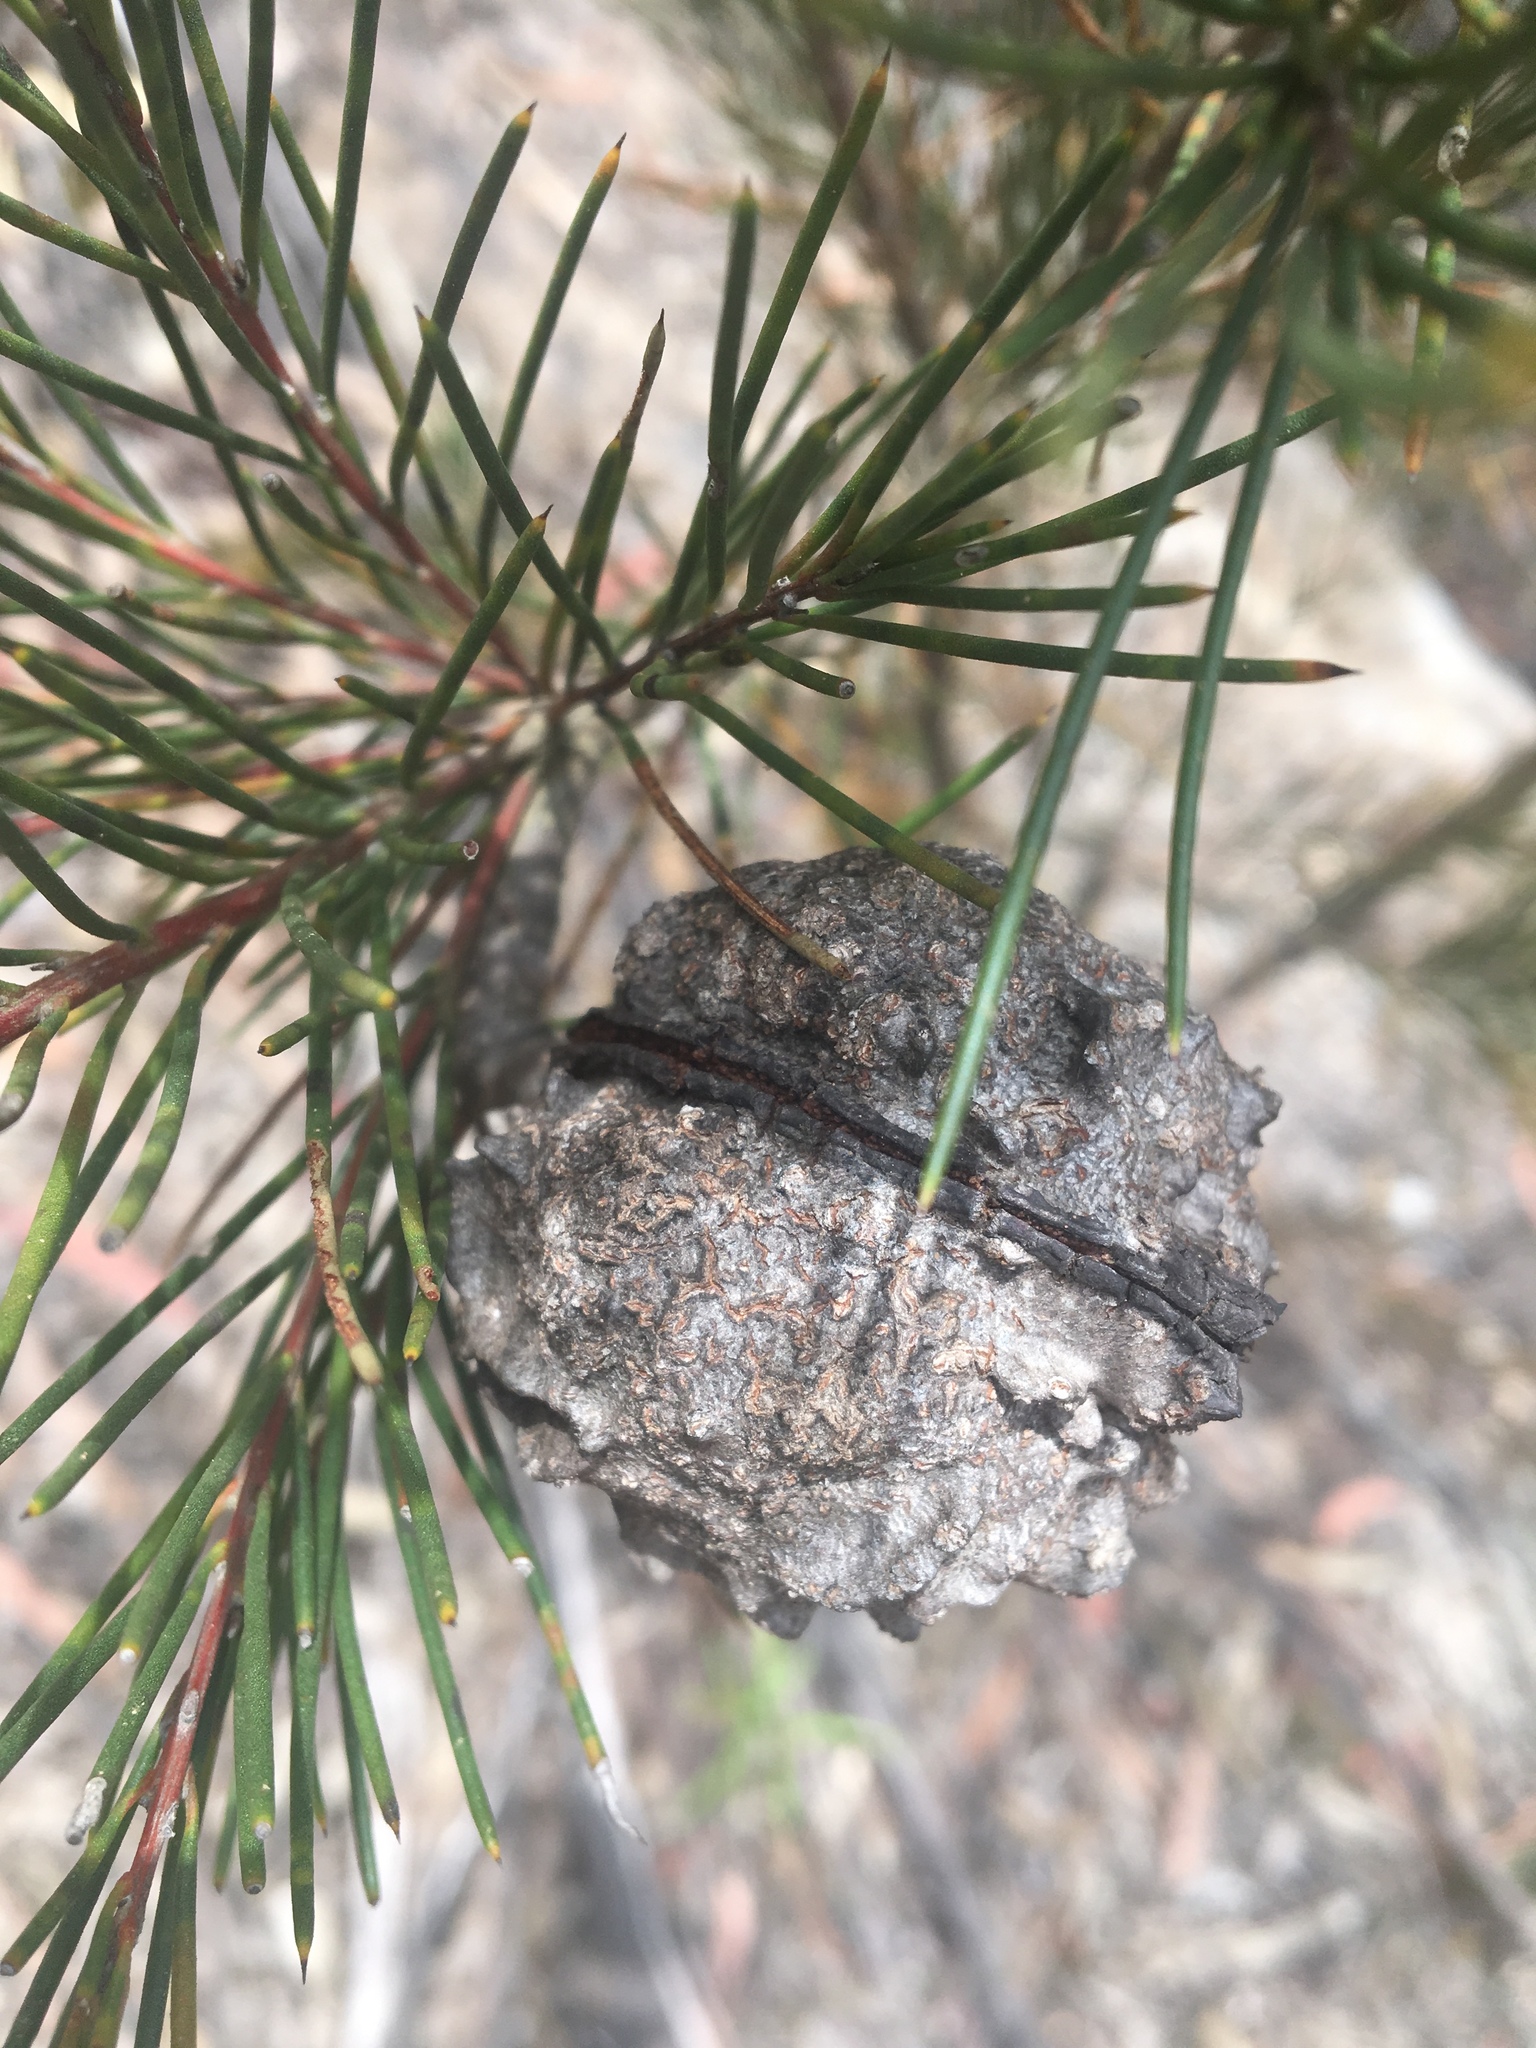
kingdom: Plantae
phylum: Tracheophyta
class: Magnoliopsida
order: Proteales
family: Proteaceae
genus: Hakea
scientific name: Hakea sericea
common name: Needle bush
